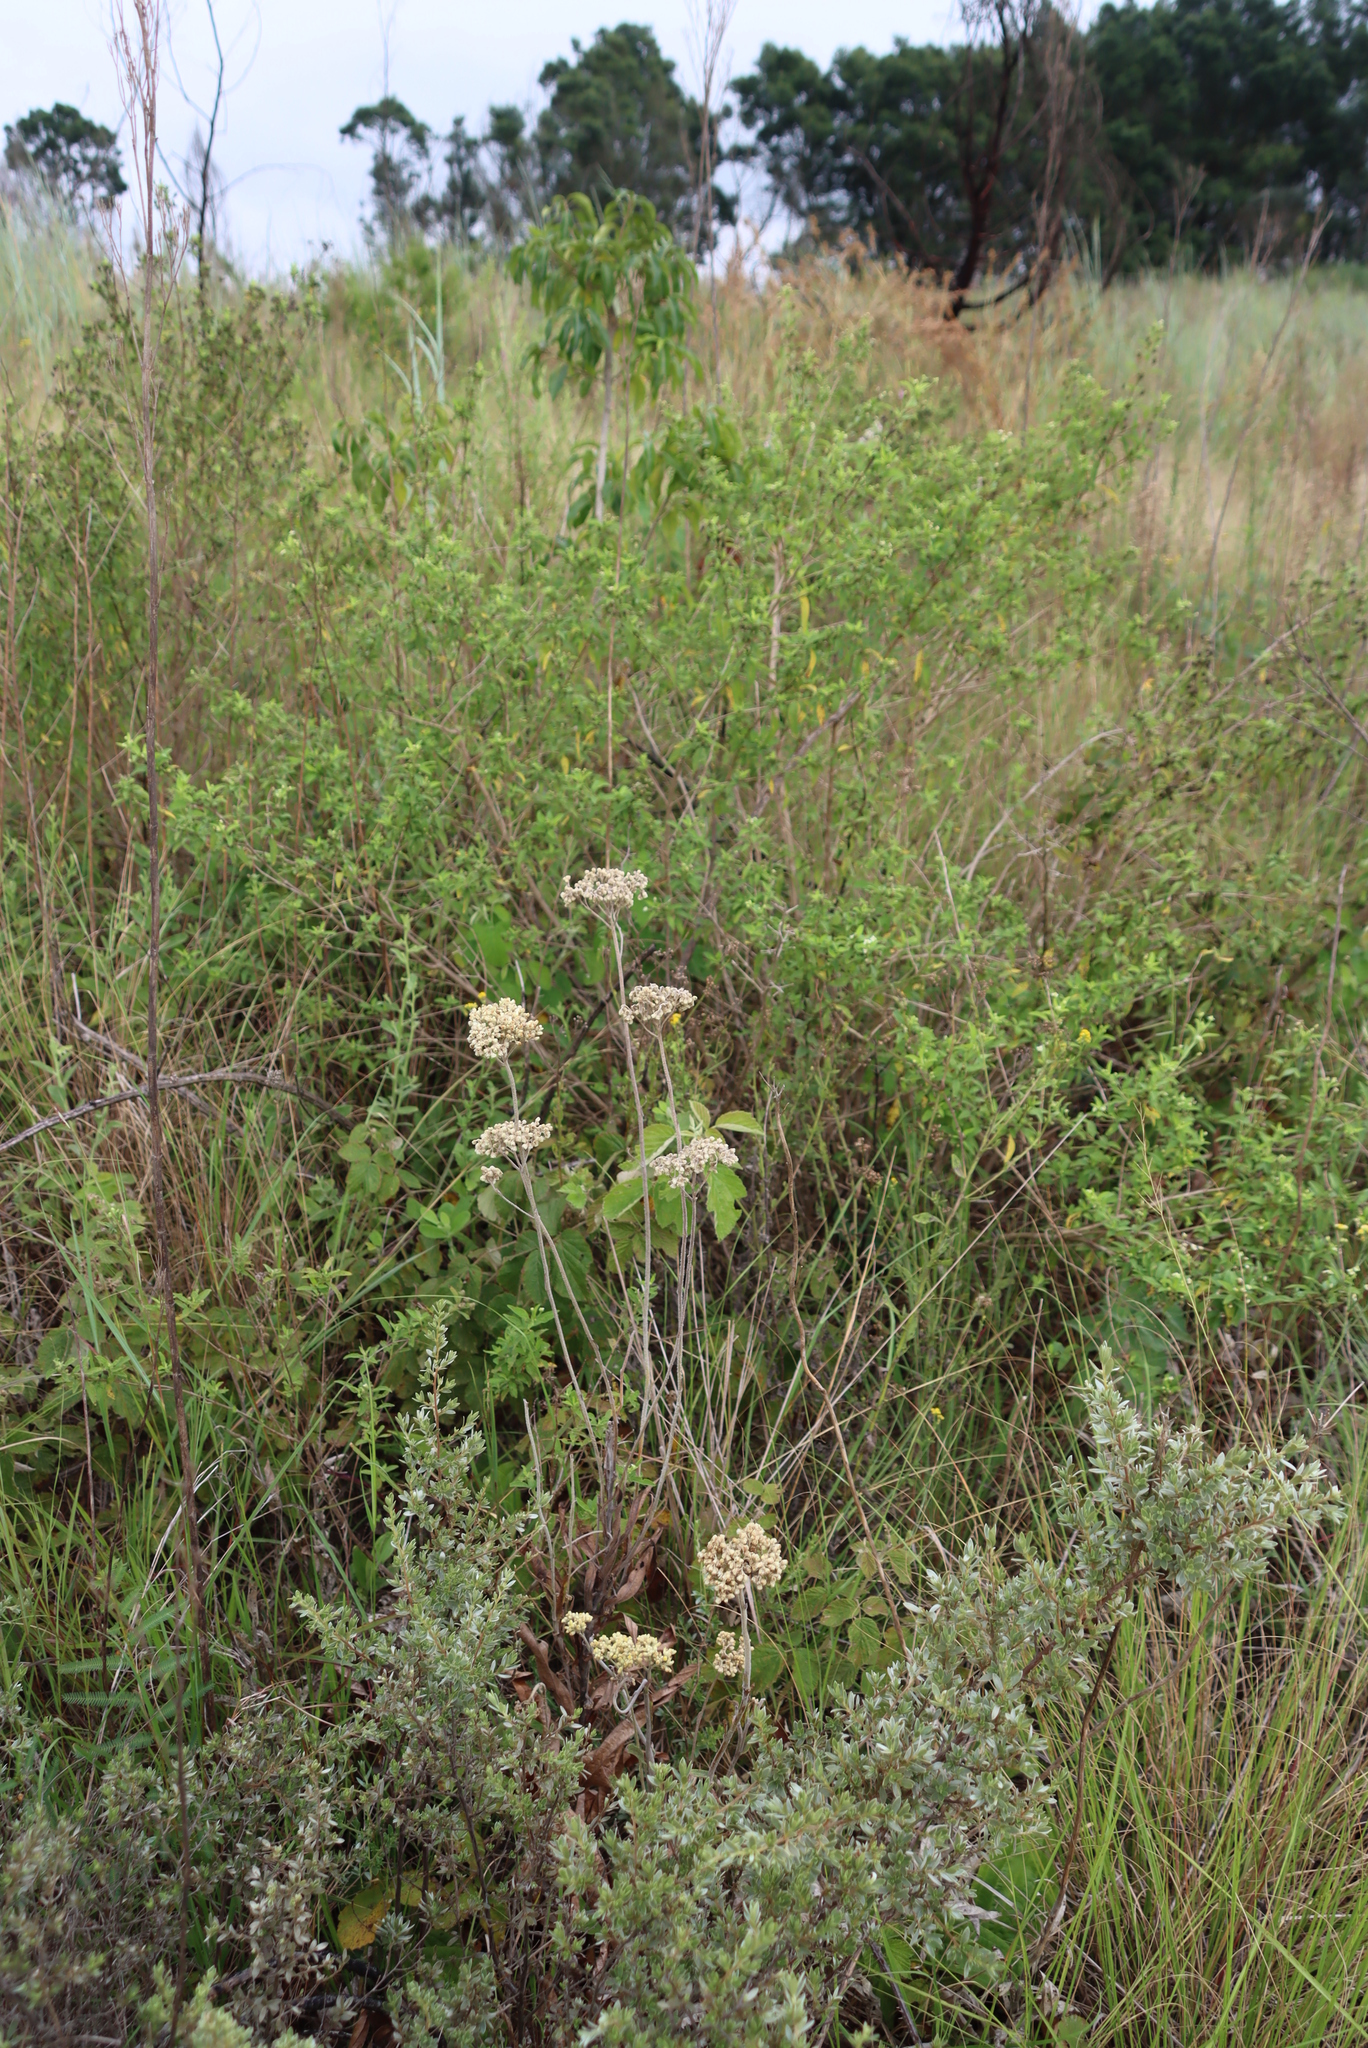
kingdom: Plantae
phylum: Tracheophyta
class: Magnoliopsida
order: Asterales
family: Asteraceae
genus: Helichrysum
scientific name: Helichrysum nudifolium
